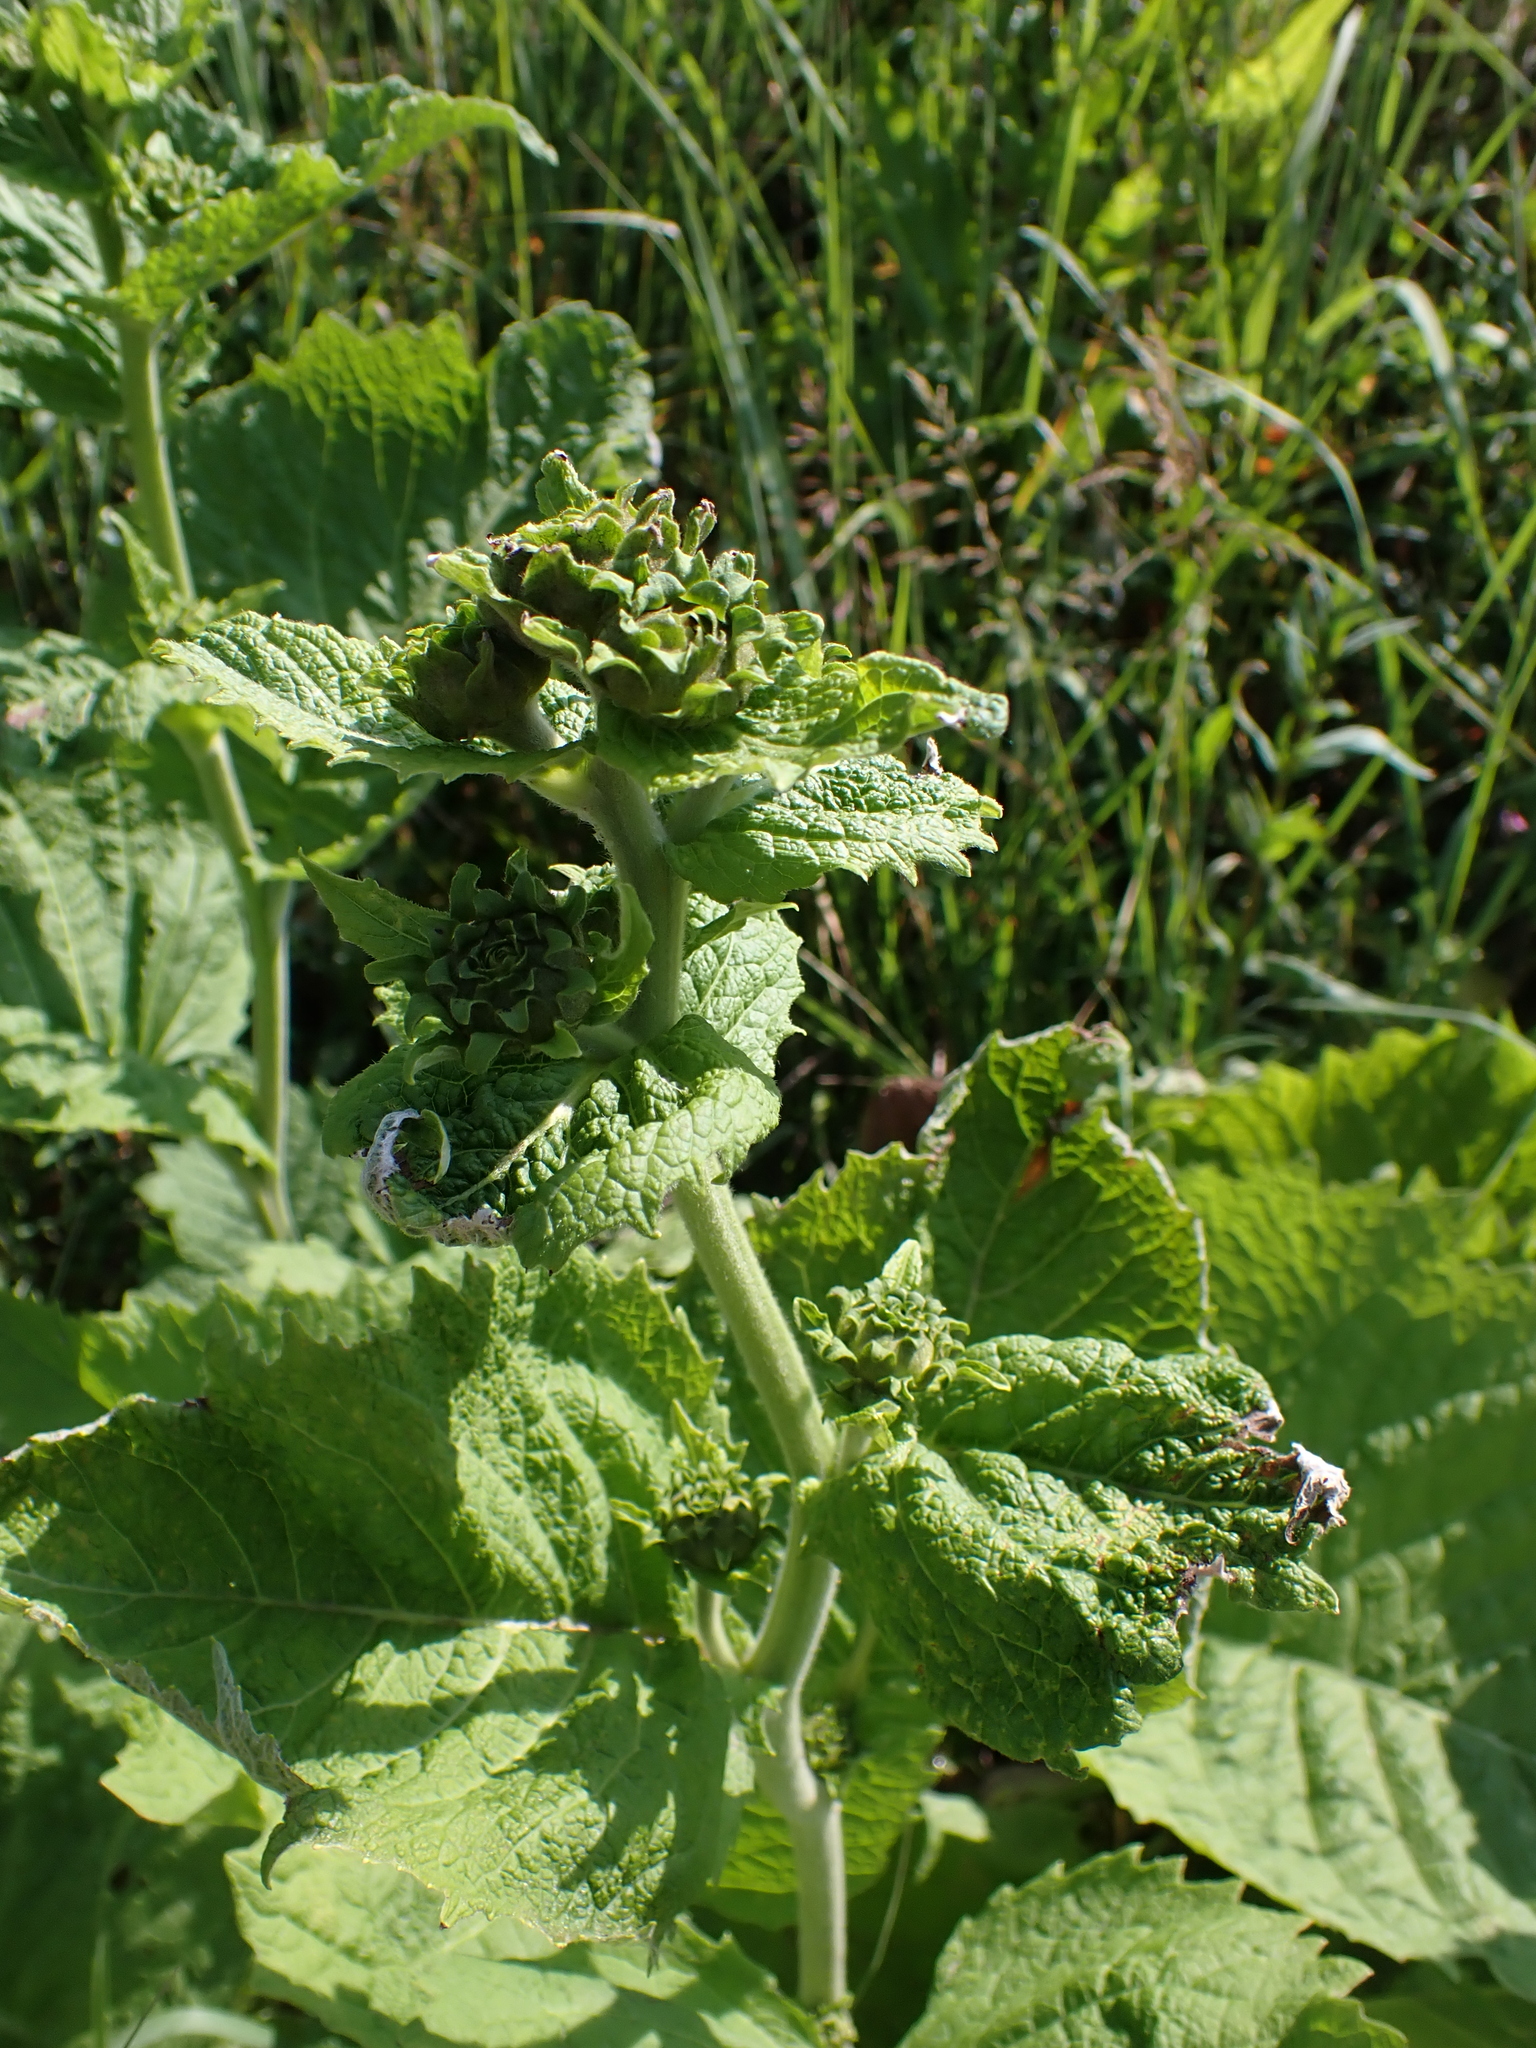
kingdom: Plantae
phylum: Tracheophyta
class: Magnoliopsida
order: Asterales
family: Asteraceae
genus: Telekia
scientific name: Telekia speciosa
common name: Yellow oxeye
